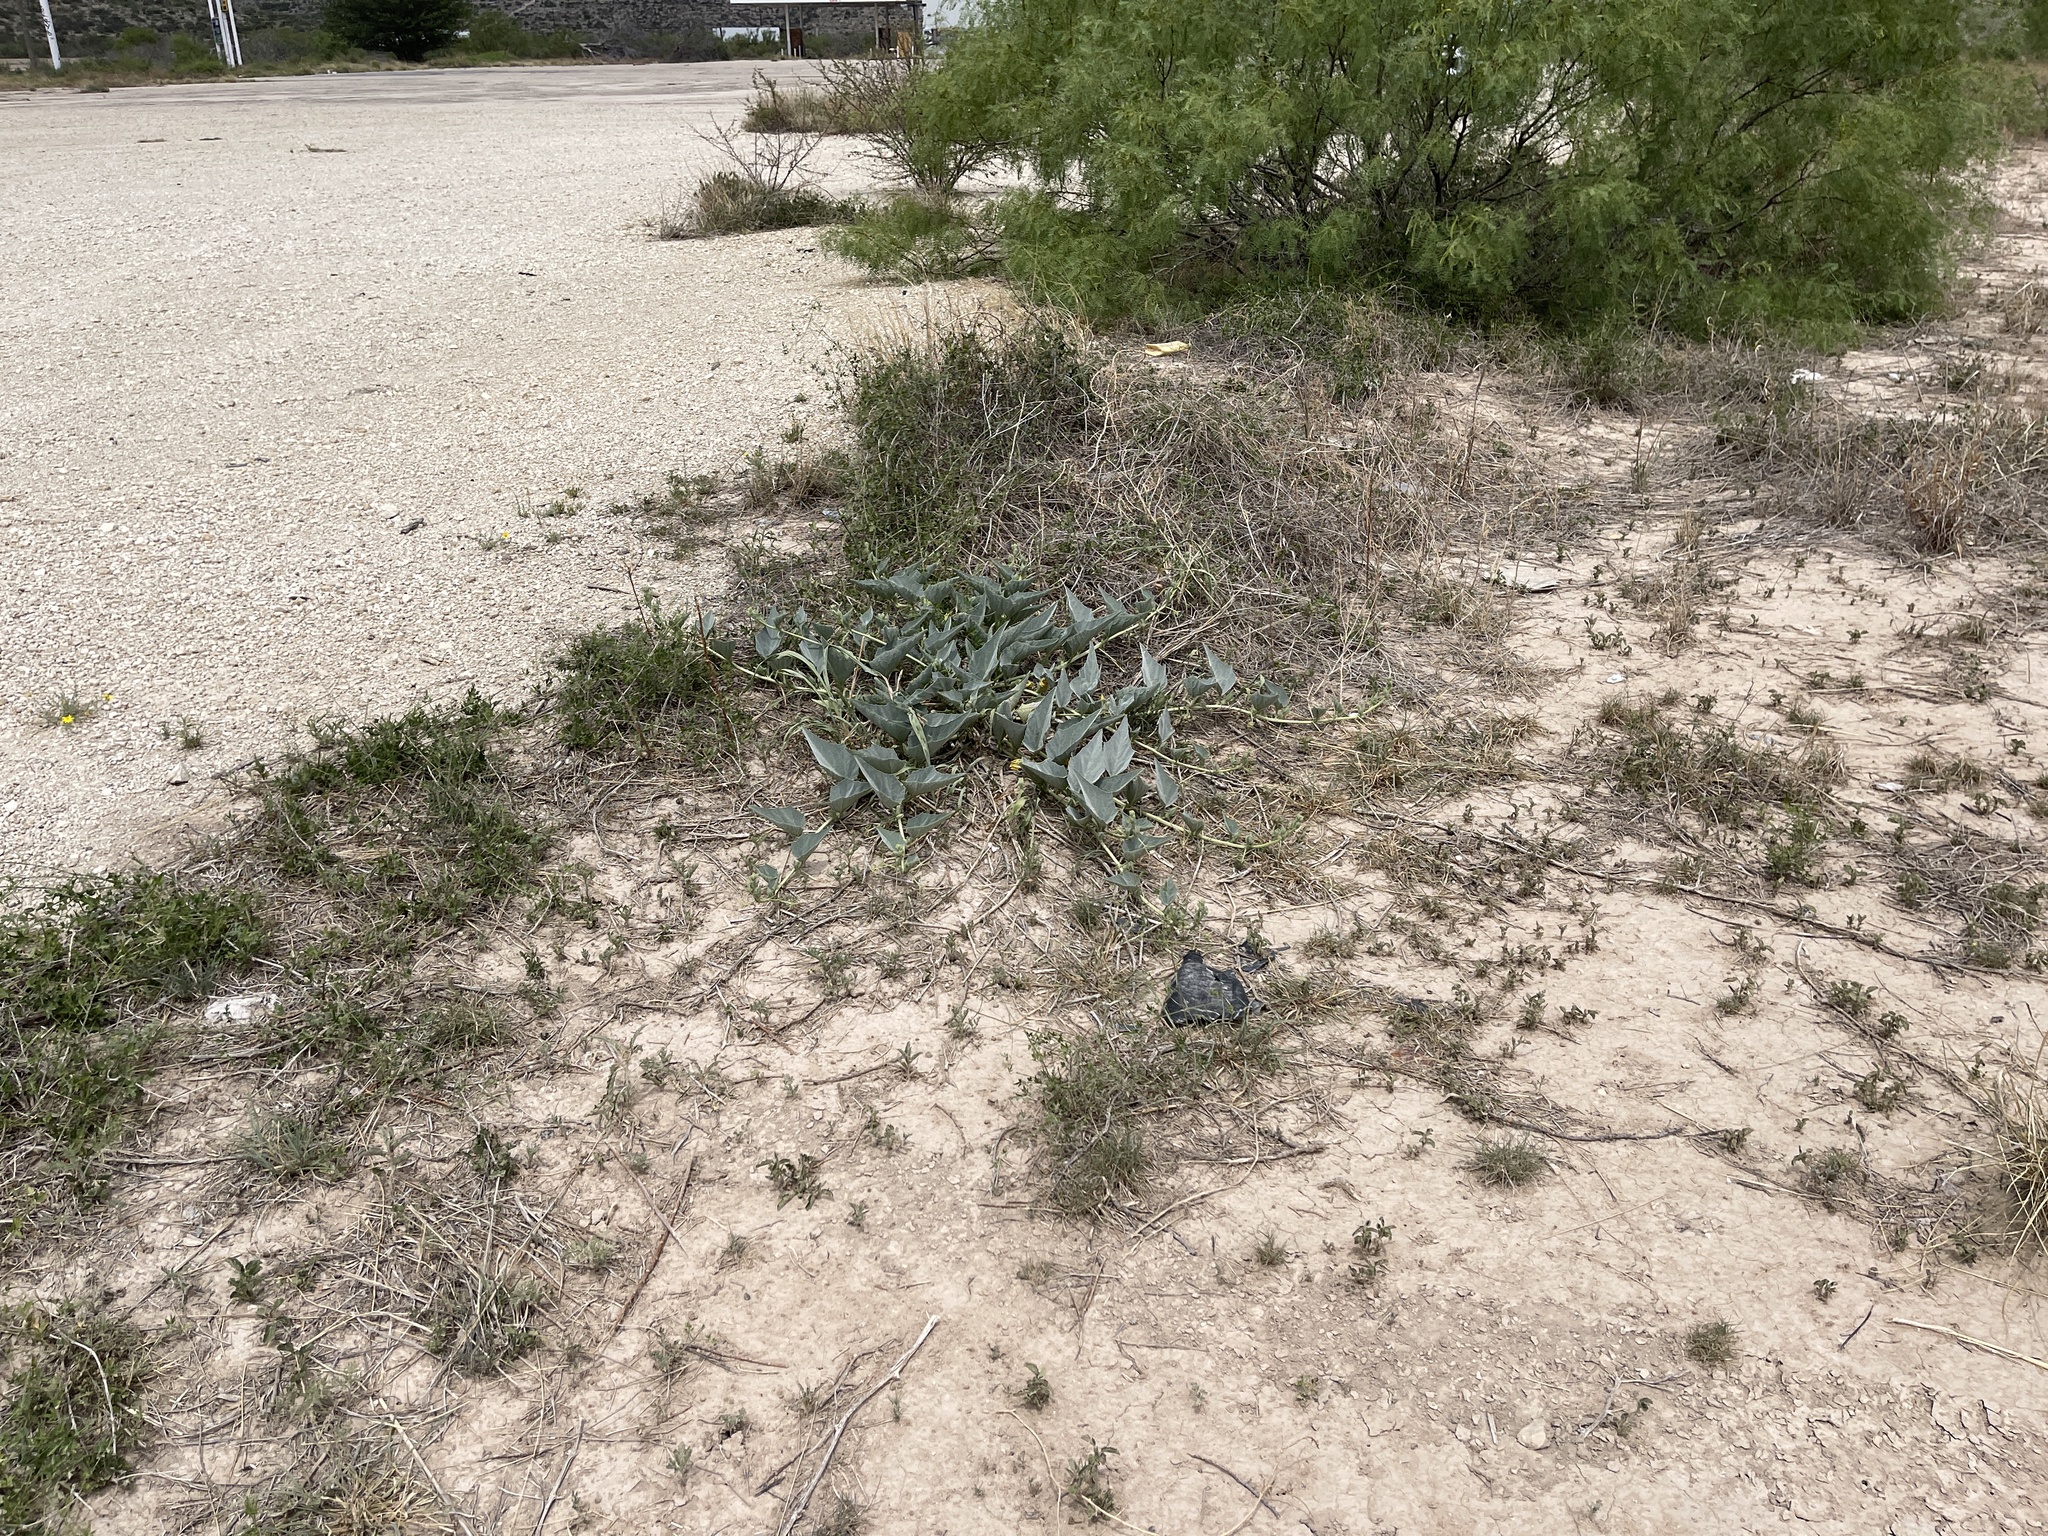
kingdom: Plantae
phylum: Tracheophyta
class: Magnoliopsida
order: Cucurbitales
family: Cucurbitaceae
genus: Cucurbita
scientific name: Cucurbita foetidissima
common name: Buffalo gourd
